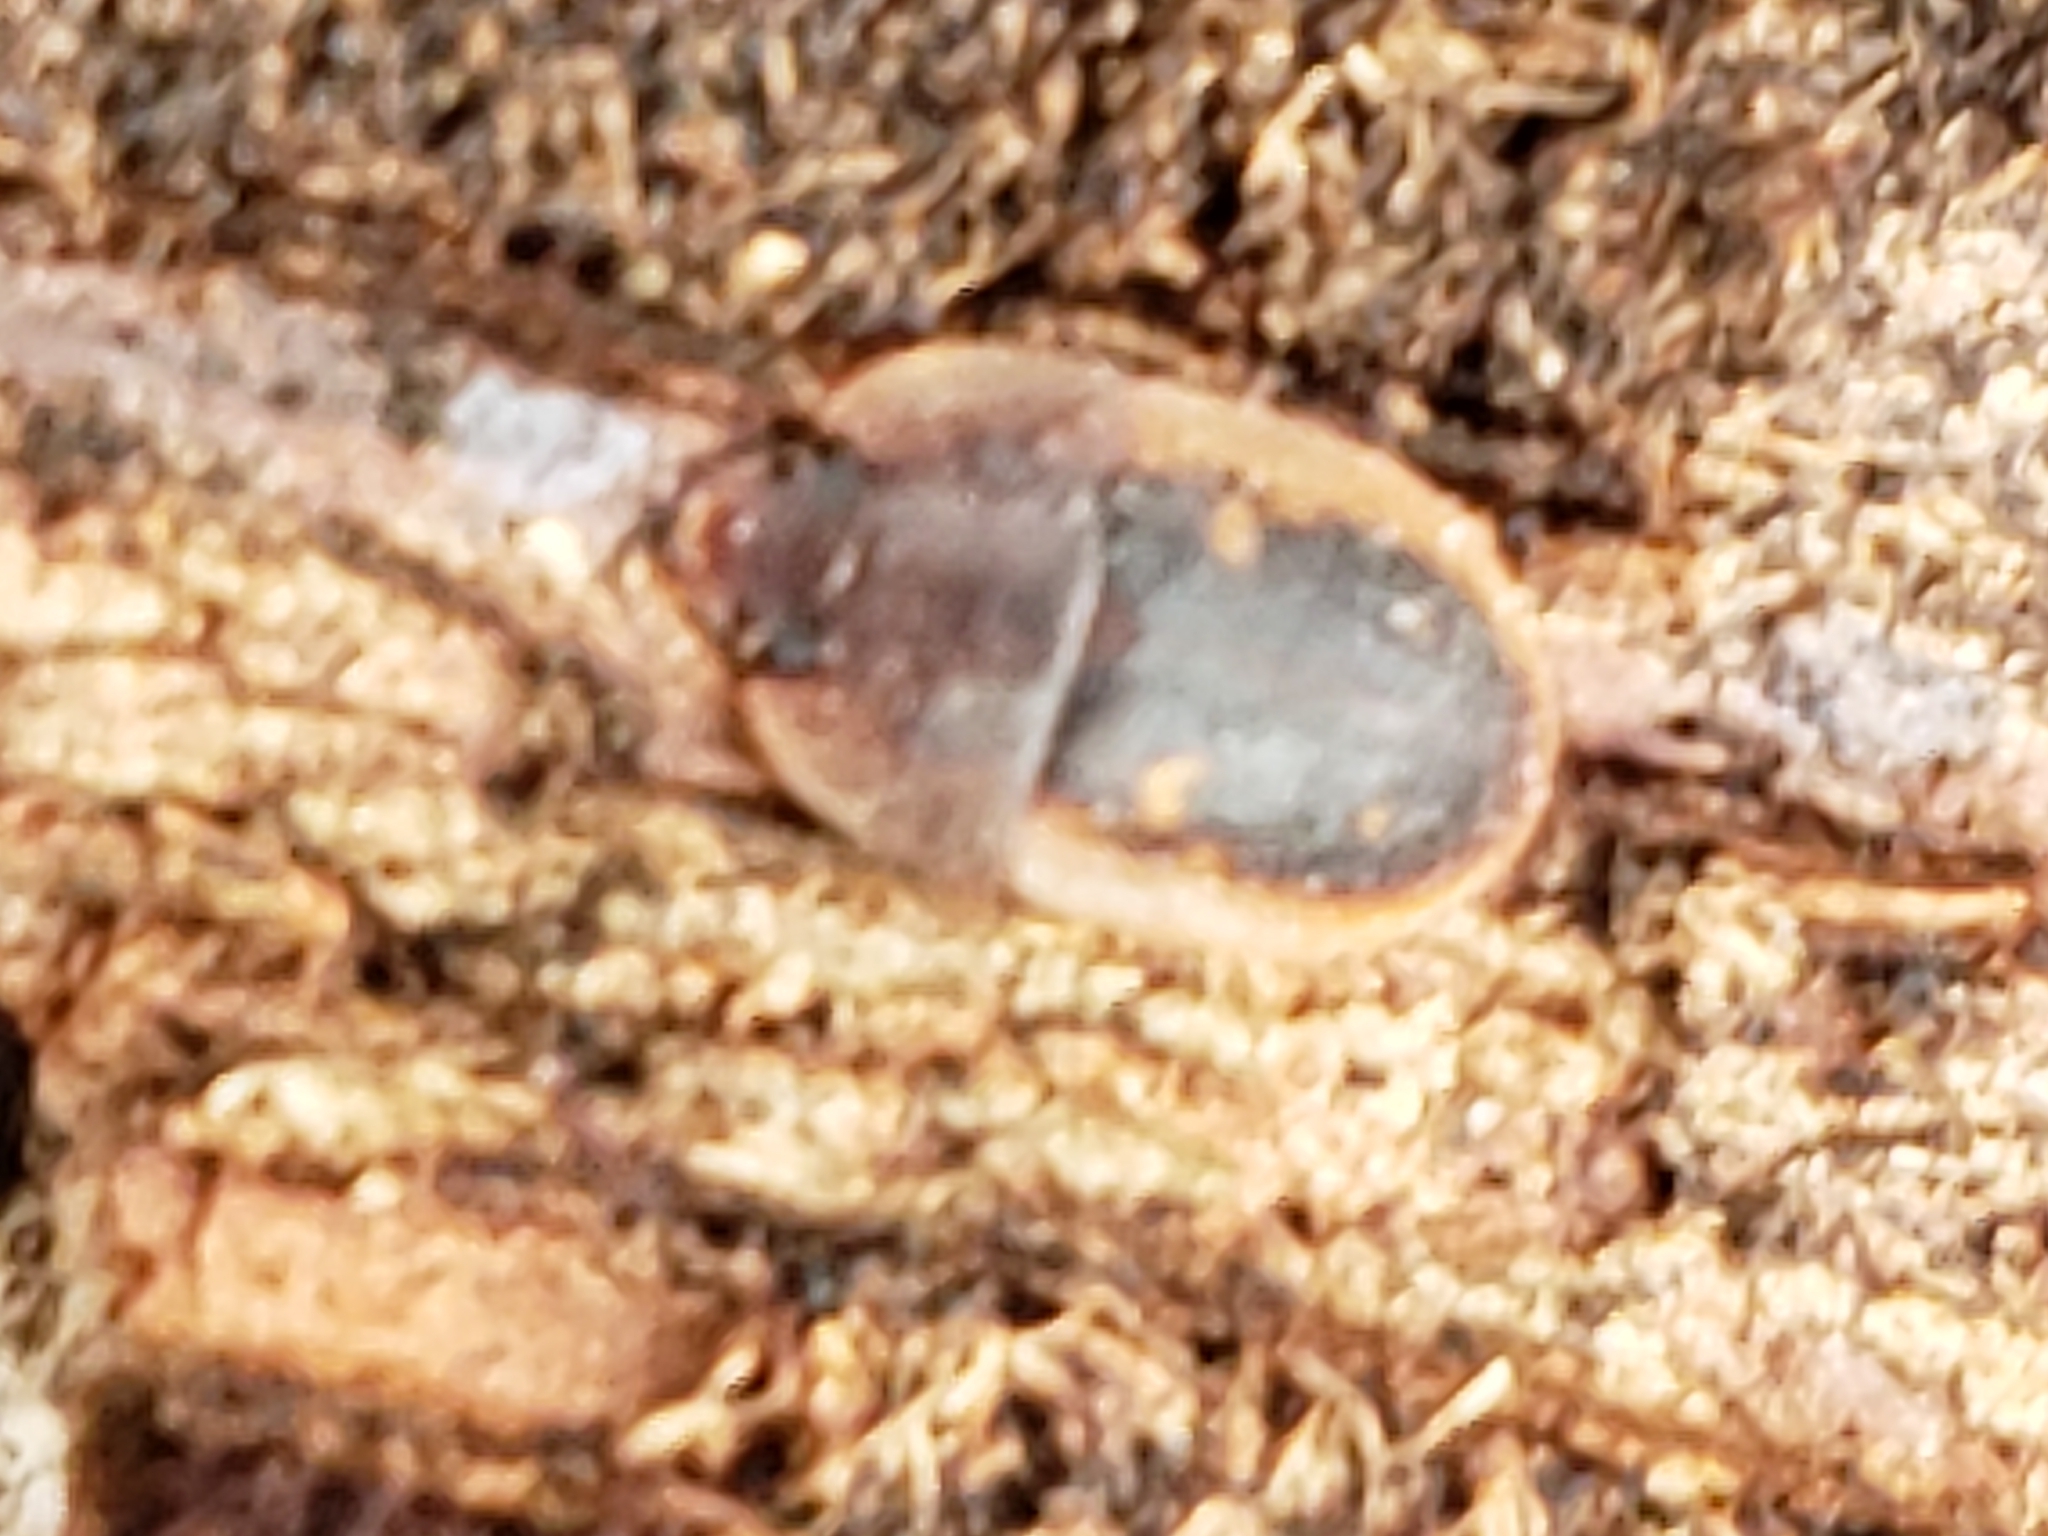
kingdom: Animalia
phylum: Arthropoda
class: Insecta
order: Coleoptera
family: Nitidulidae
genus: Prometopia
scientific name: Prometopia sexmaculata
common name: Six-spotted sap-feeding beetle
